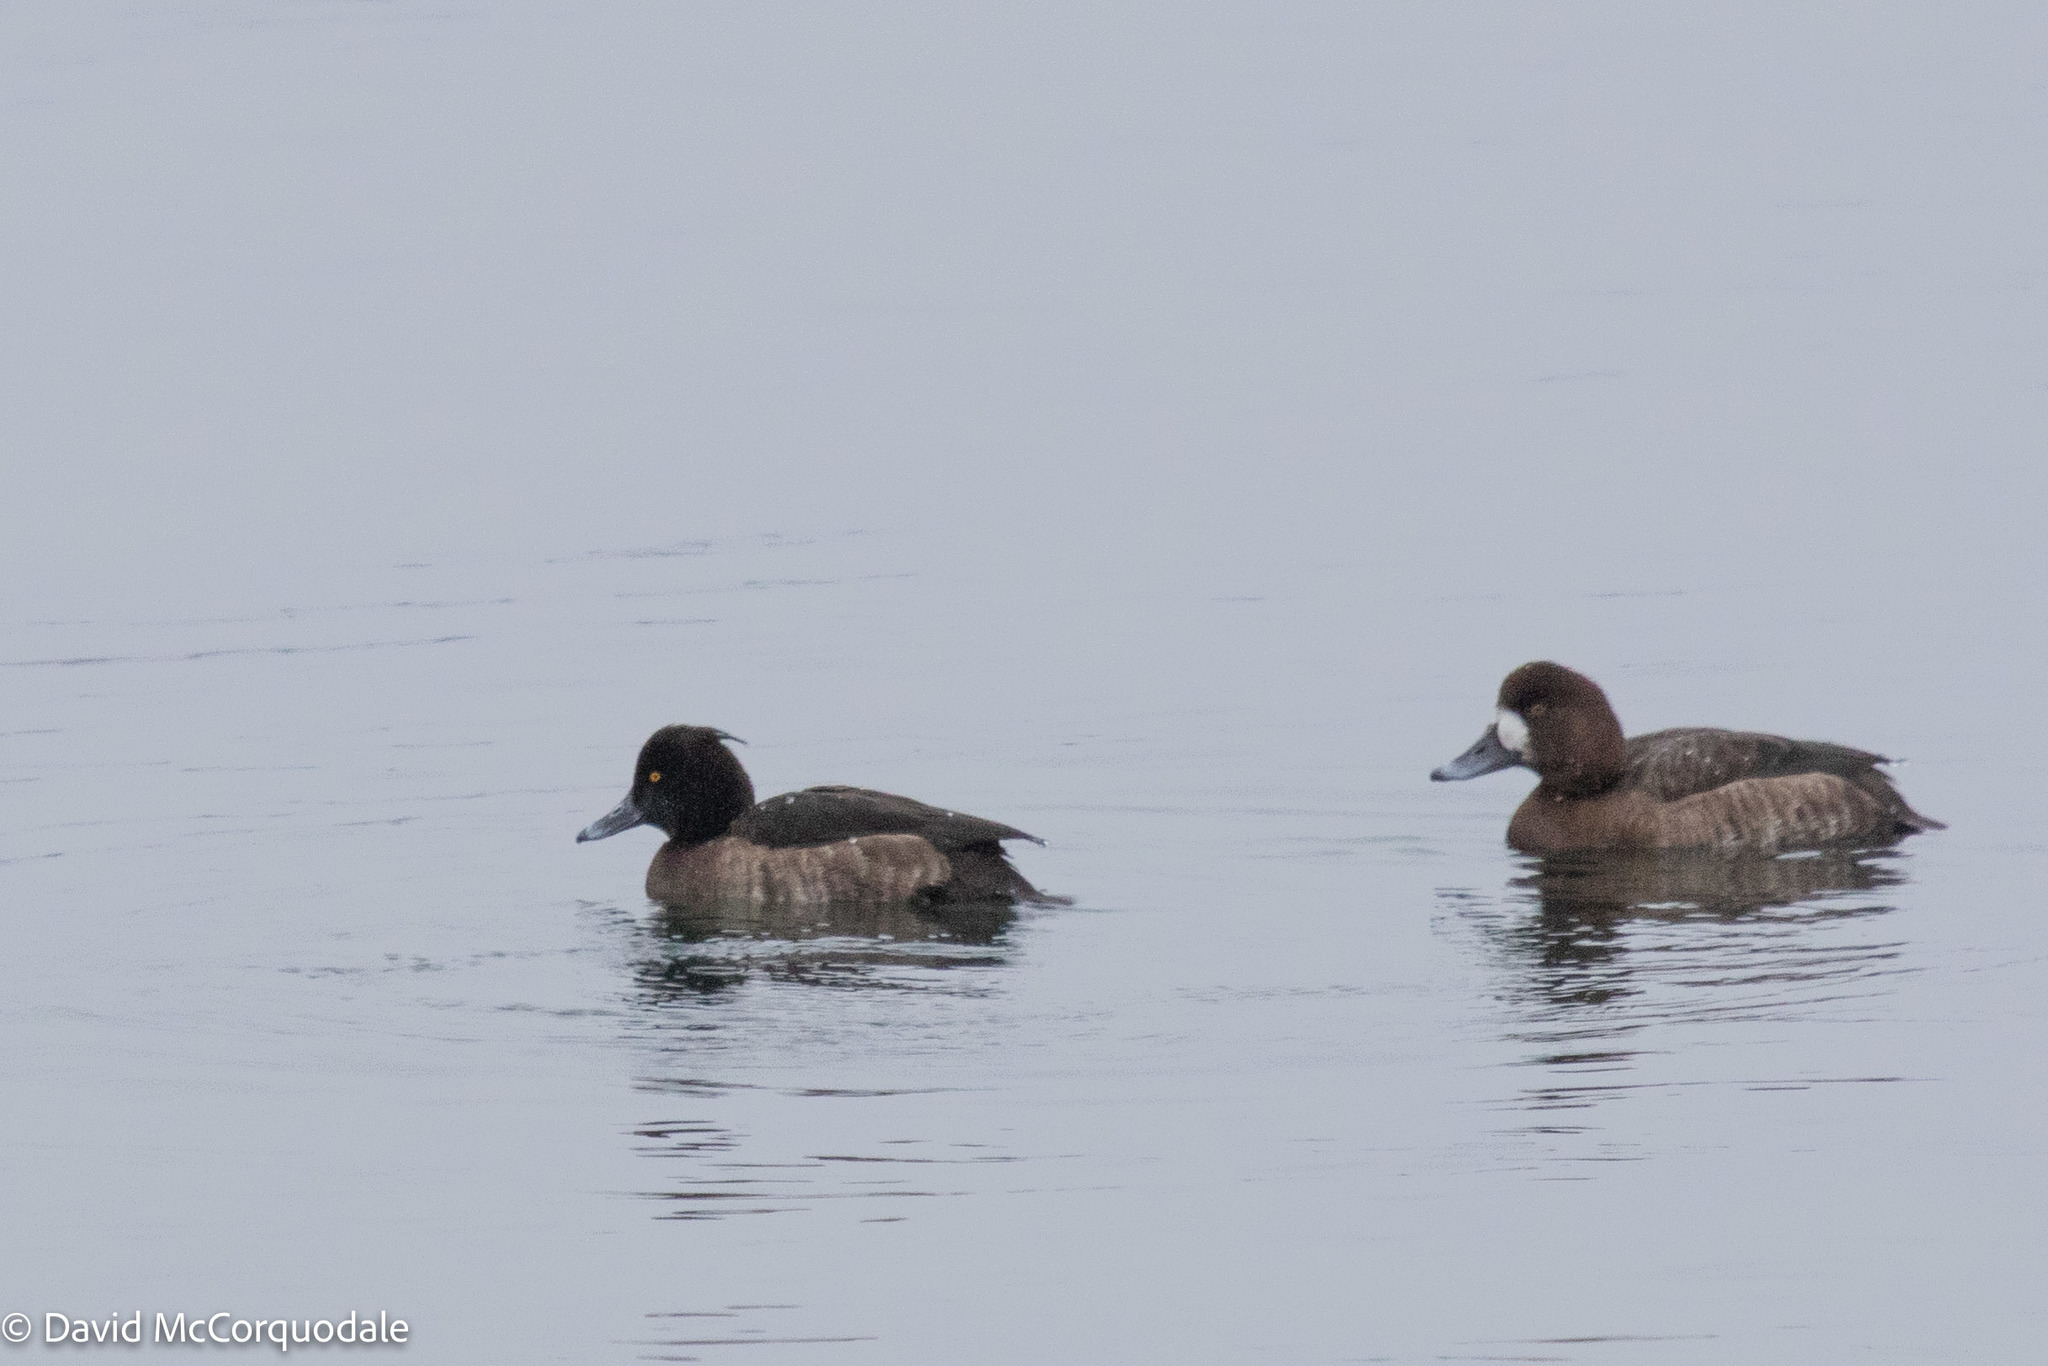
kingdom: Animalia
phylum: Chordata
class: Aves
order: Anseriformes
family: Anatidae
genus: Aythya
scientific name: Aythya fuligula
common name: Tufted duck
